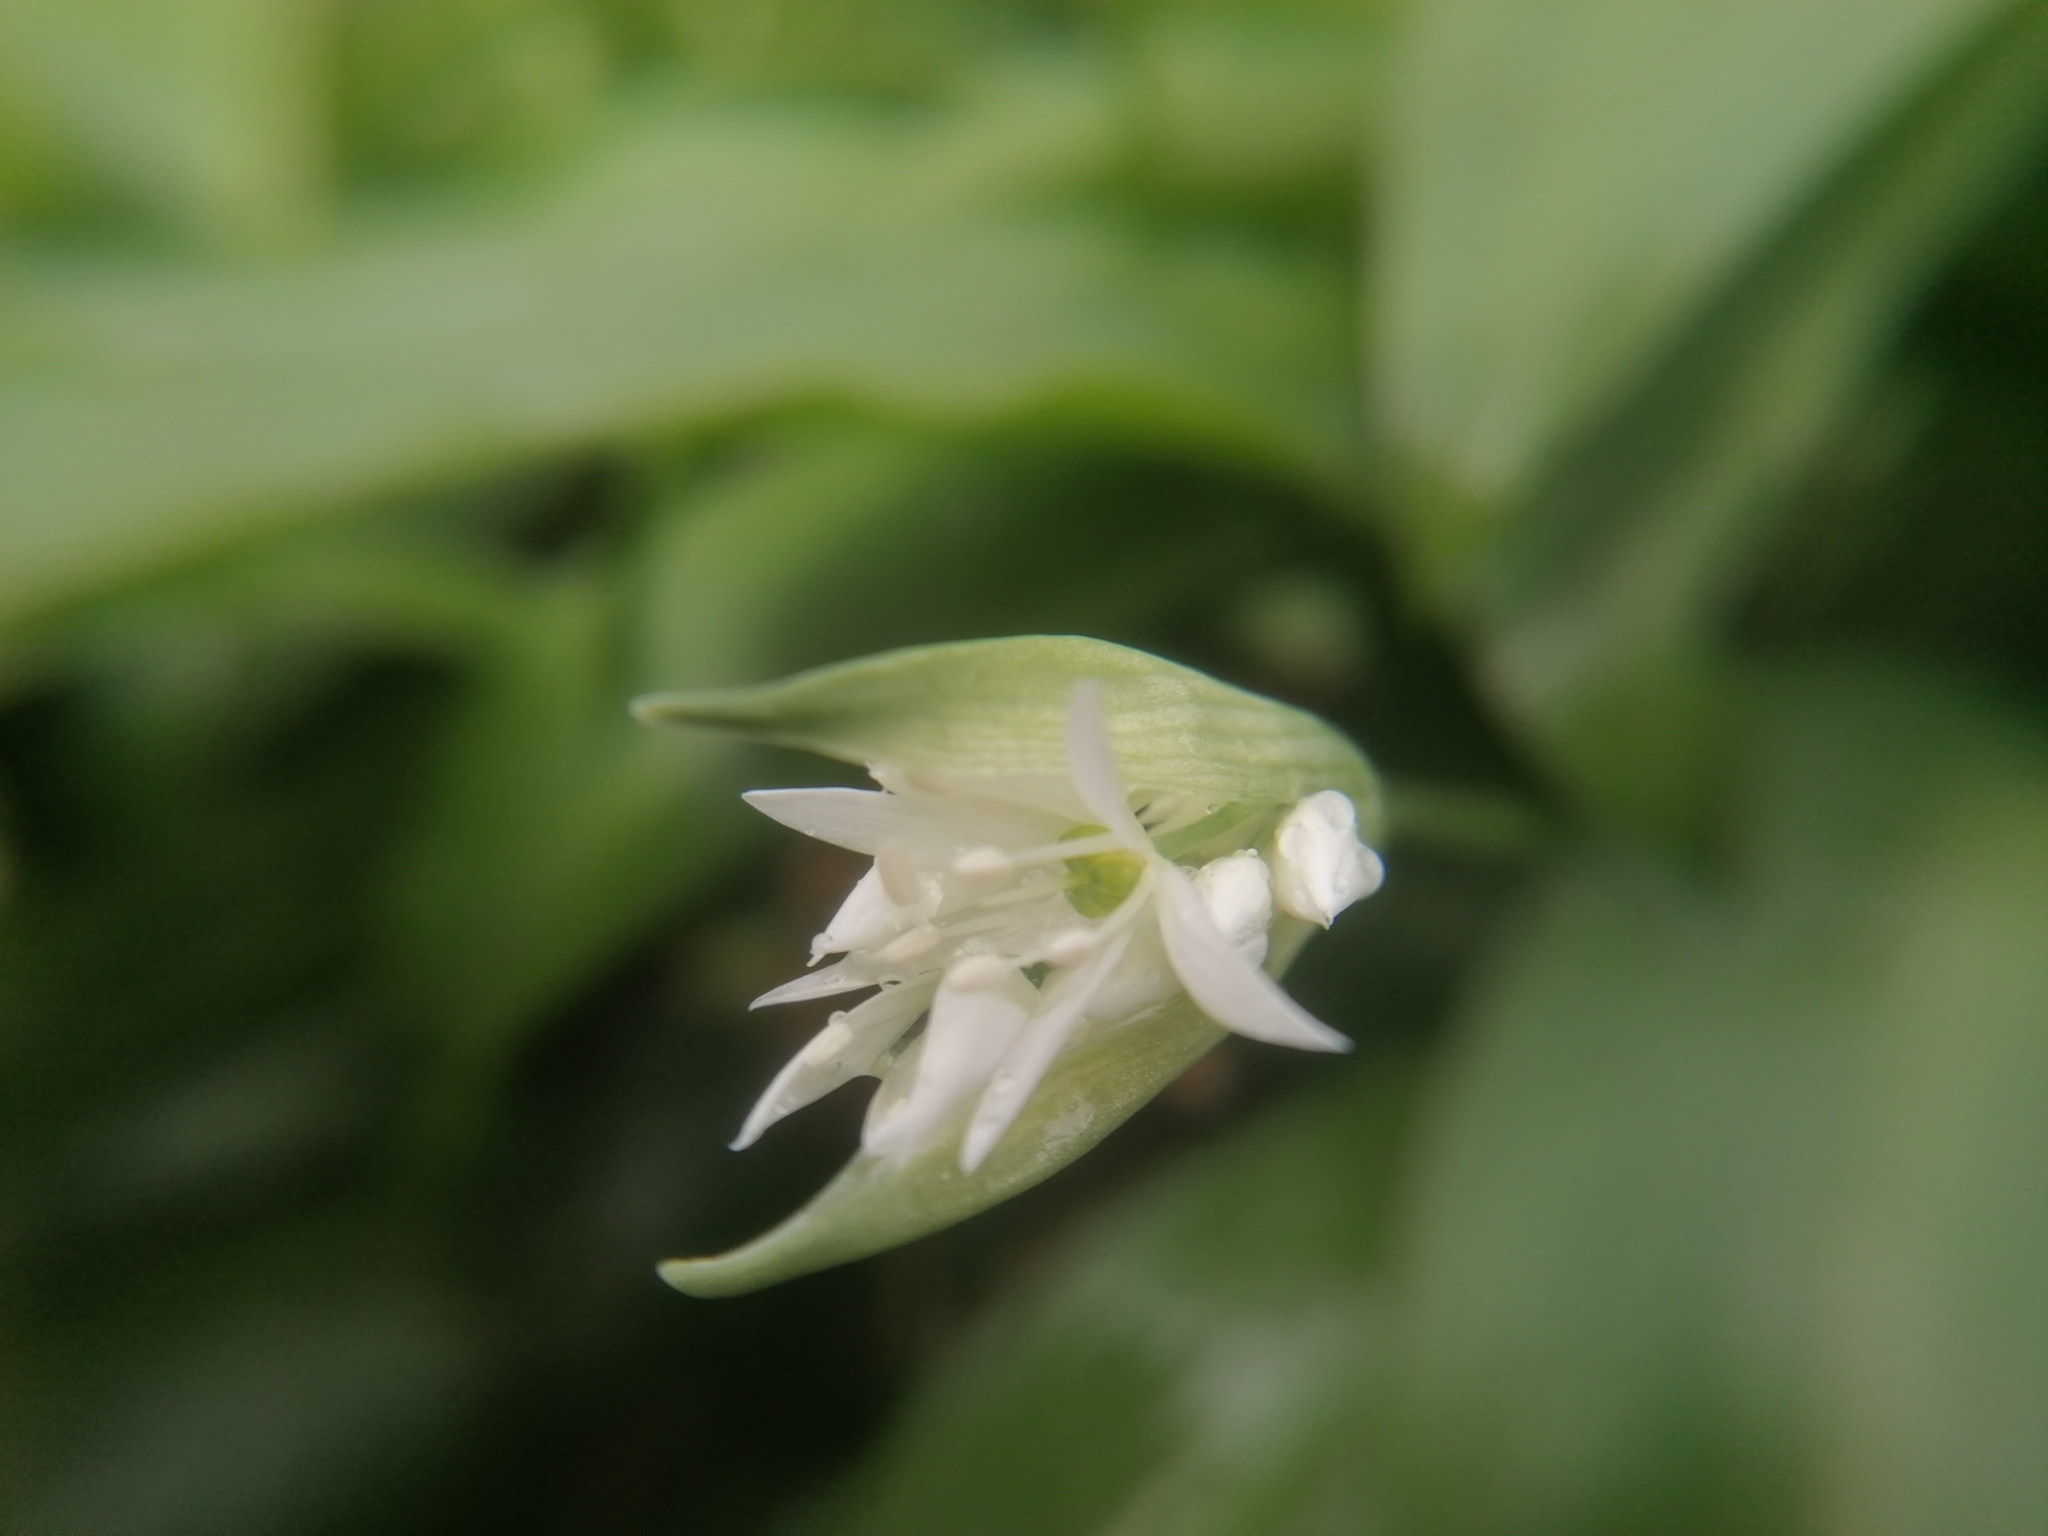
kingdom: Plantae
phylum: Tracheophyta
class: Liliopsida
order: Asparagales
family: Amaryllidaceae
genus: Allium
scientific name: Allium ursinum
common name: Ramsons
